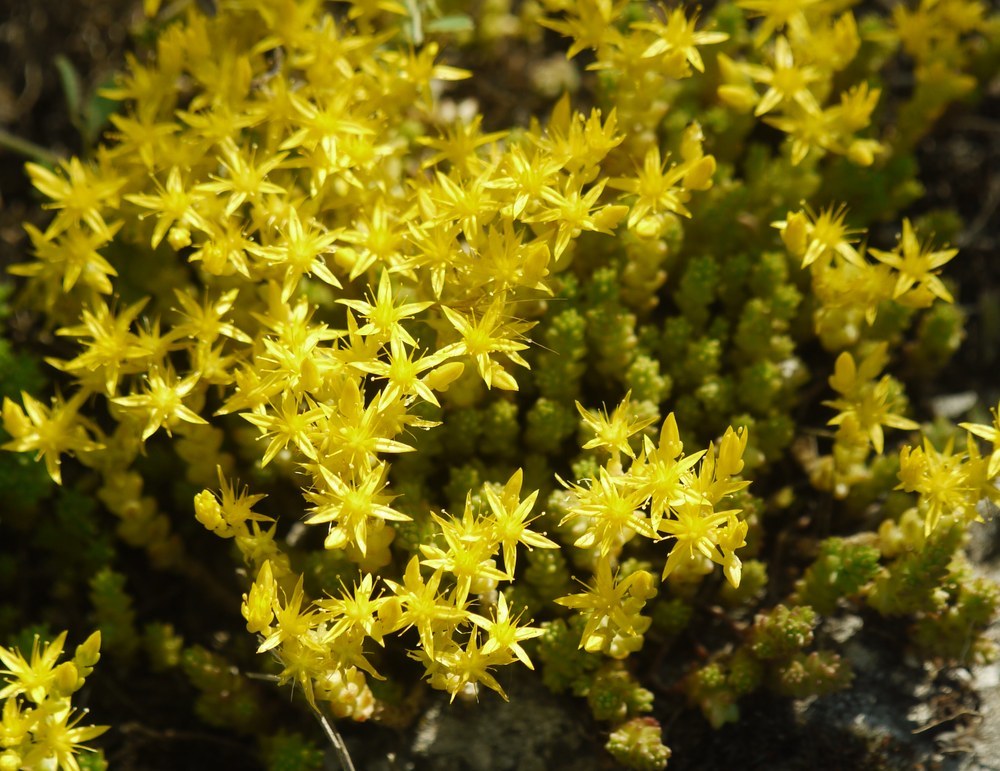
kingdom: Plantae
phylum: Tracheophyta
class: Magnoliopsida
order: Saxifragales
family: Crassulaceae
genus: Sedum
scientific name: Sedum acre
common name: Biting stonecrop
